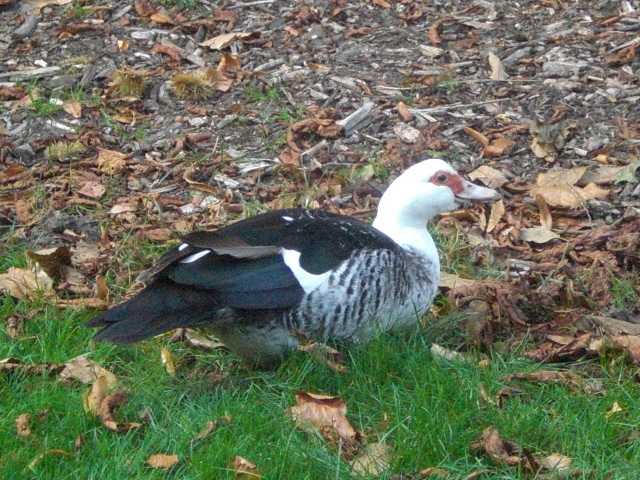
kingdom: Animalia
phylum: Chordata
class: Aves
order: Anseriformes
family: Anatidae
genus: Cairina
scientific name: Cairina moschata
